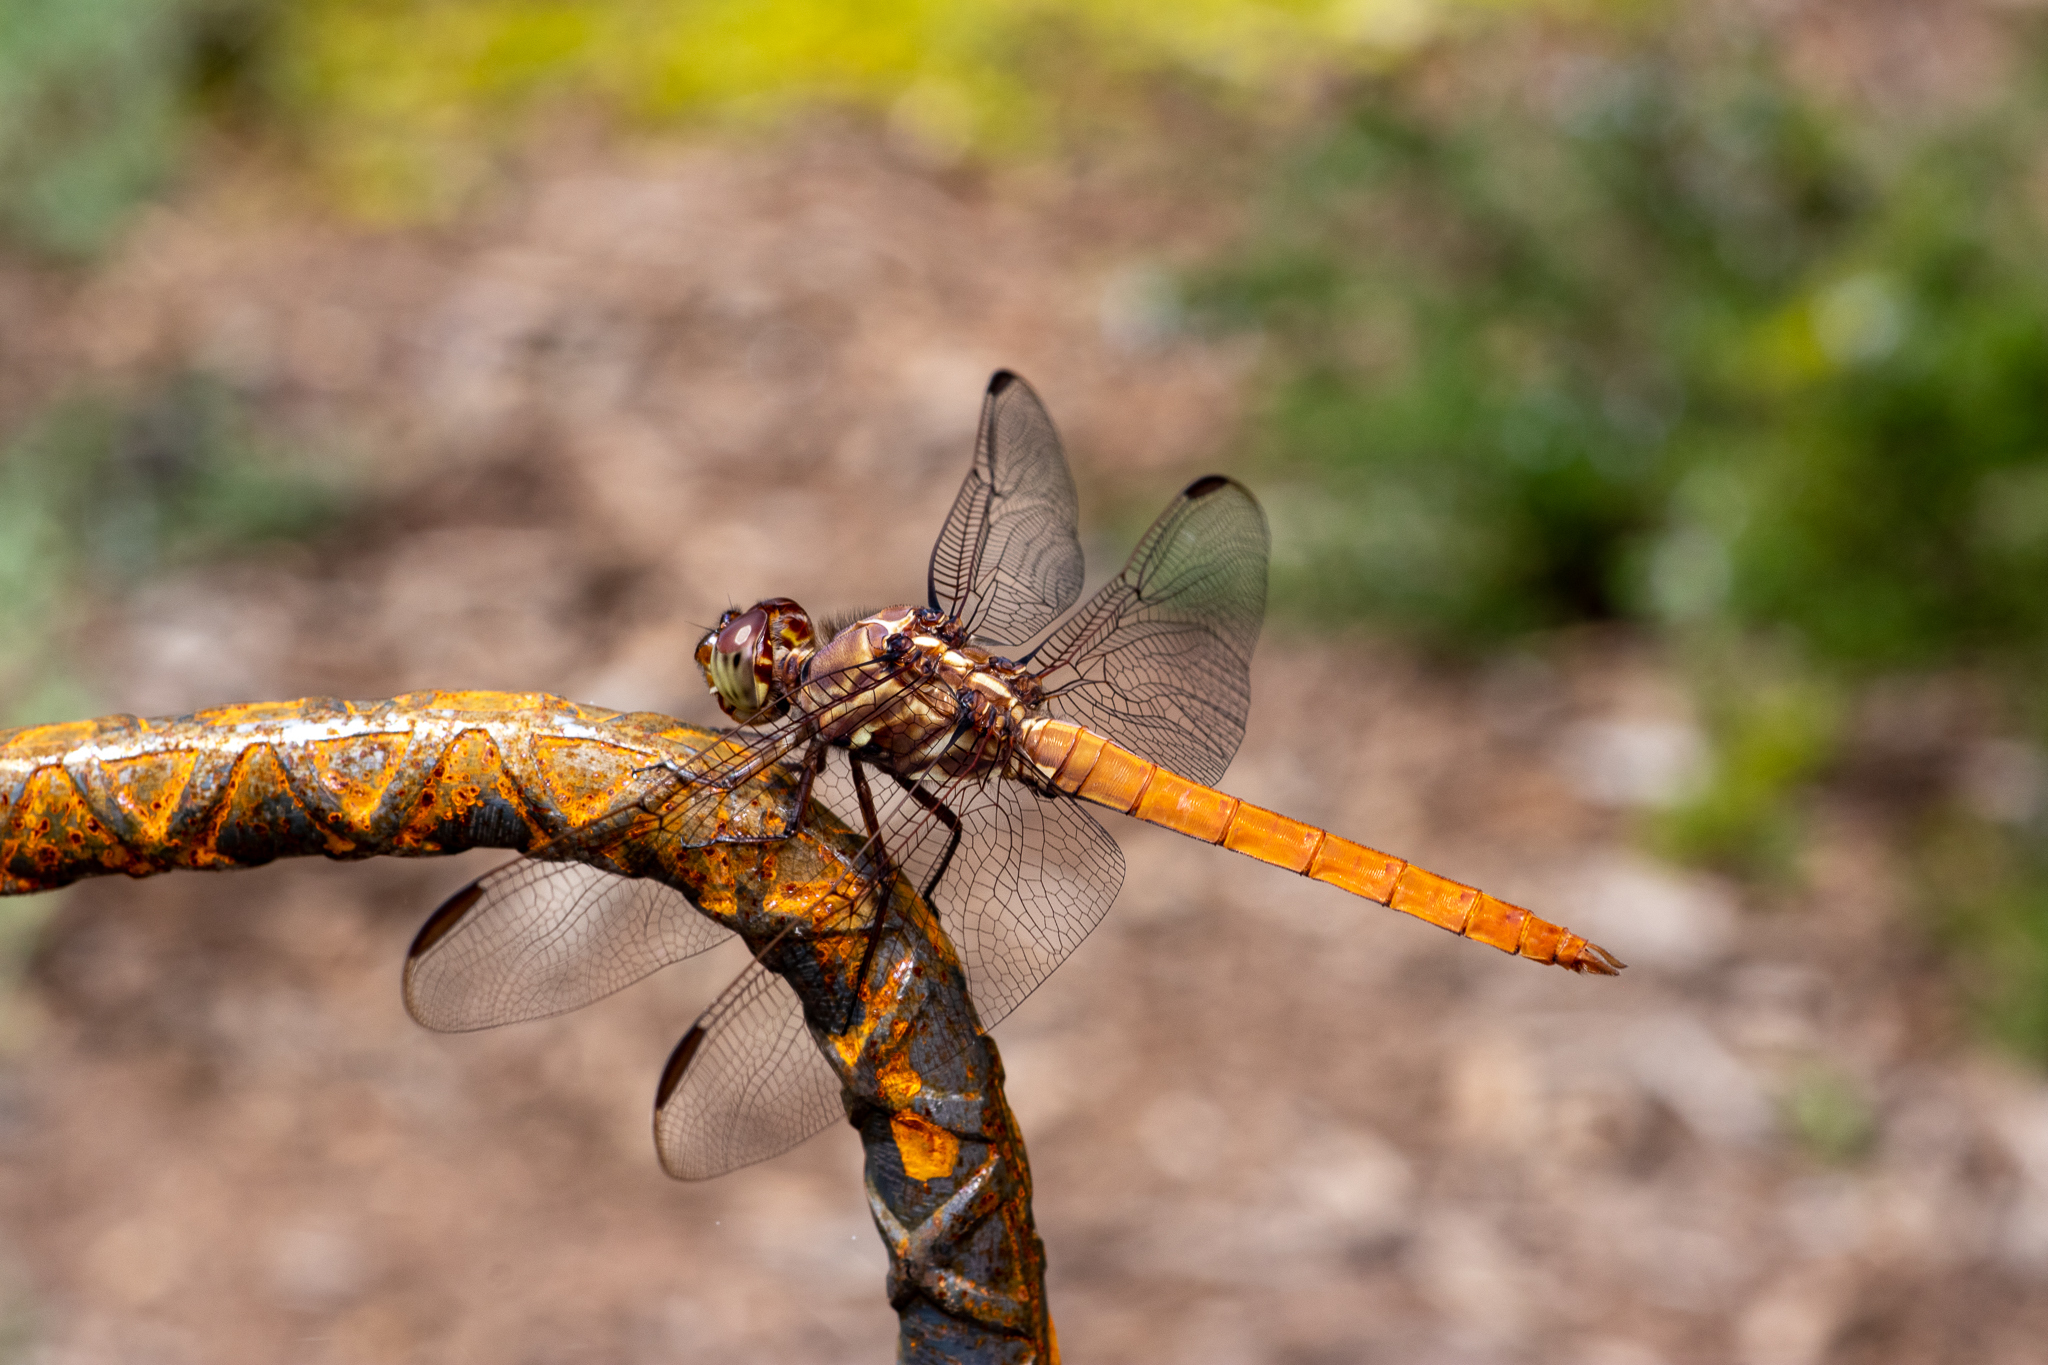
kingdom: Animalia
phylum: Arthropoda
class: Insecta
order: Odonata
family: Libellulidae
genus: Orthemis
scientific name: Orthemis ferruginea
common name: Roseate skimmer
